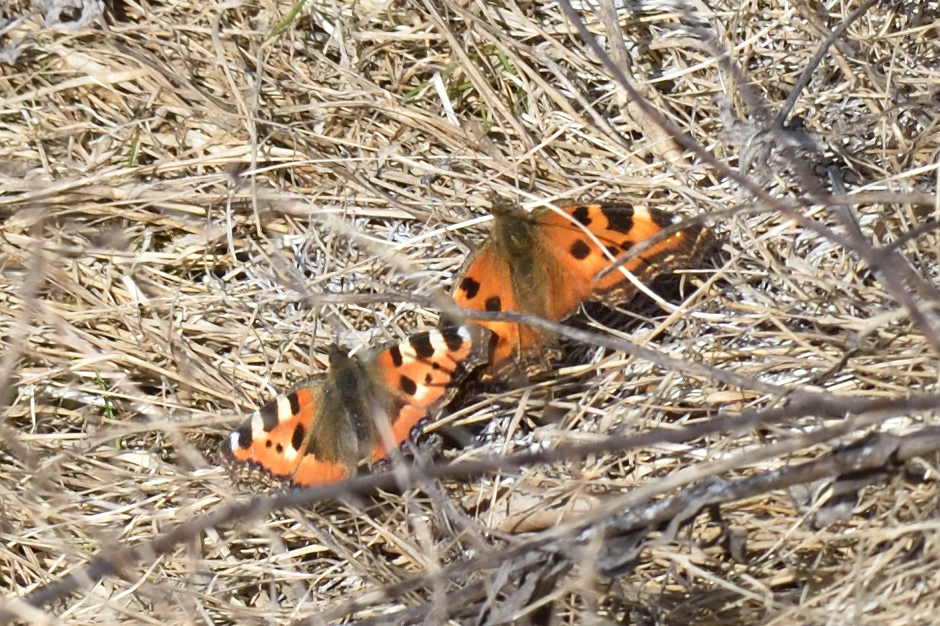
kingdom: Animalia
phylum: Arthropoda
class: Insecta
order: Lepidoptera
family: Nymphalidae
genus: Nymphalis
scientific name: Nymphalis xanthomelas
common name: Scarce tortoiseshell
